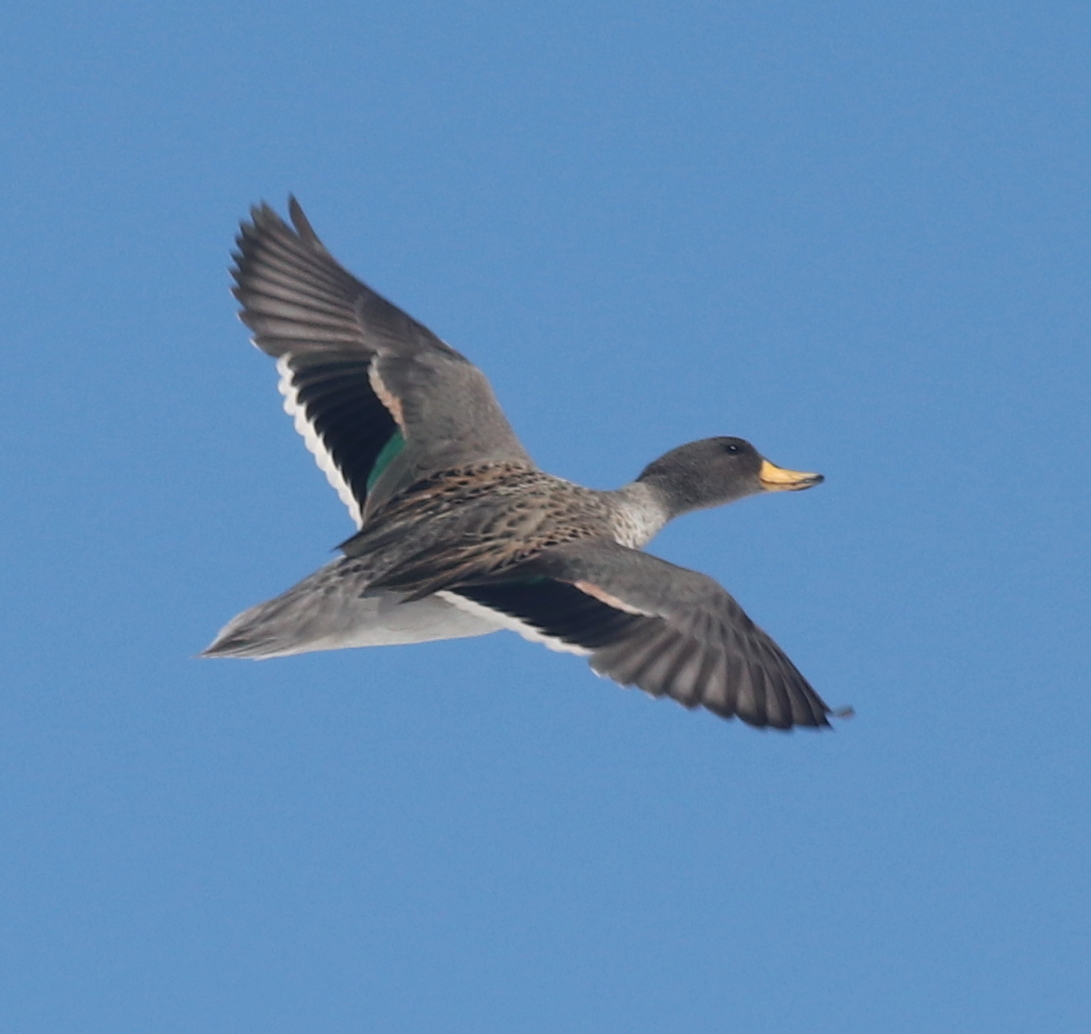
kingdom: Animalia
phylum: Chordata
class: Aves
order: Anseriformes
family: Anatidae
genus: Anas
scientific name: Anas flavirostris
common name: Yellow-billed teal
